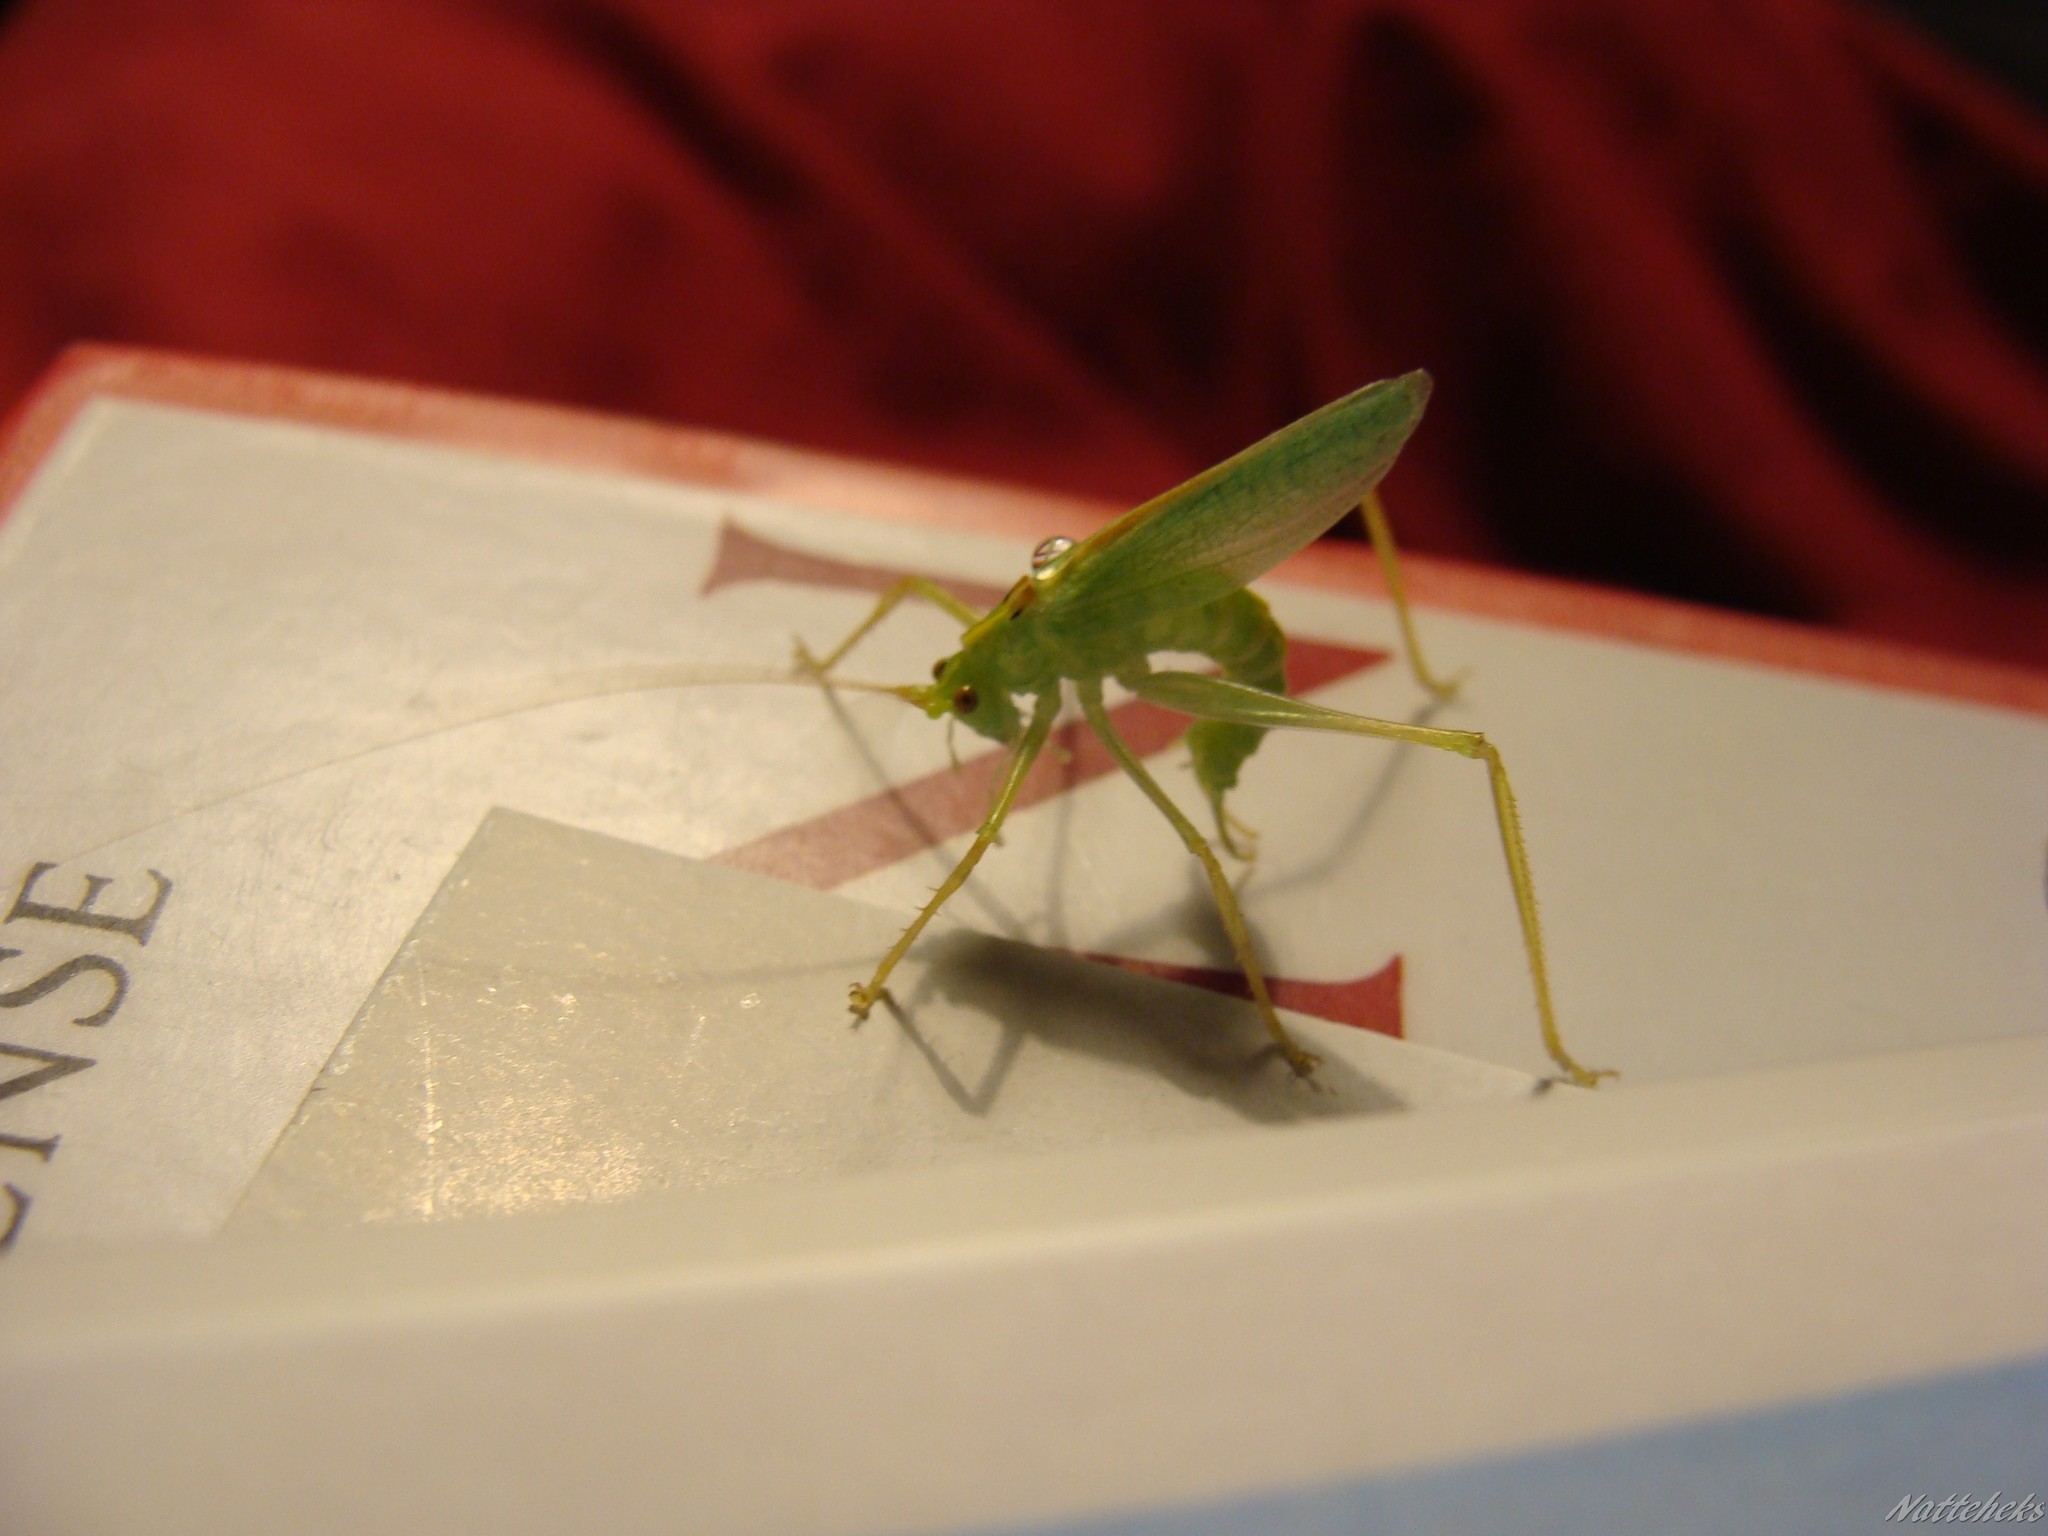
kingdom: Animalia
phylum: Arthropoda
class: Insecta
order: Orthoptera
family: Tettigoniidae
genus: Meconema
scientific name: Meconema thalassinum
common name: Oak bush-cricket
